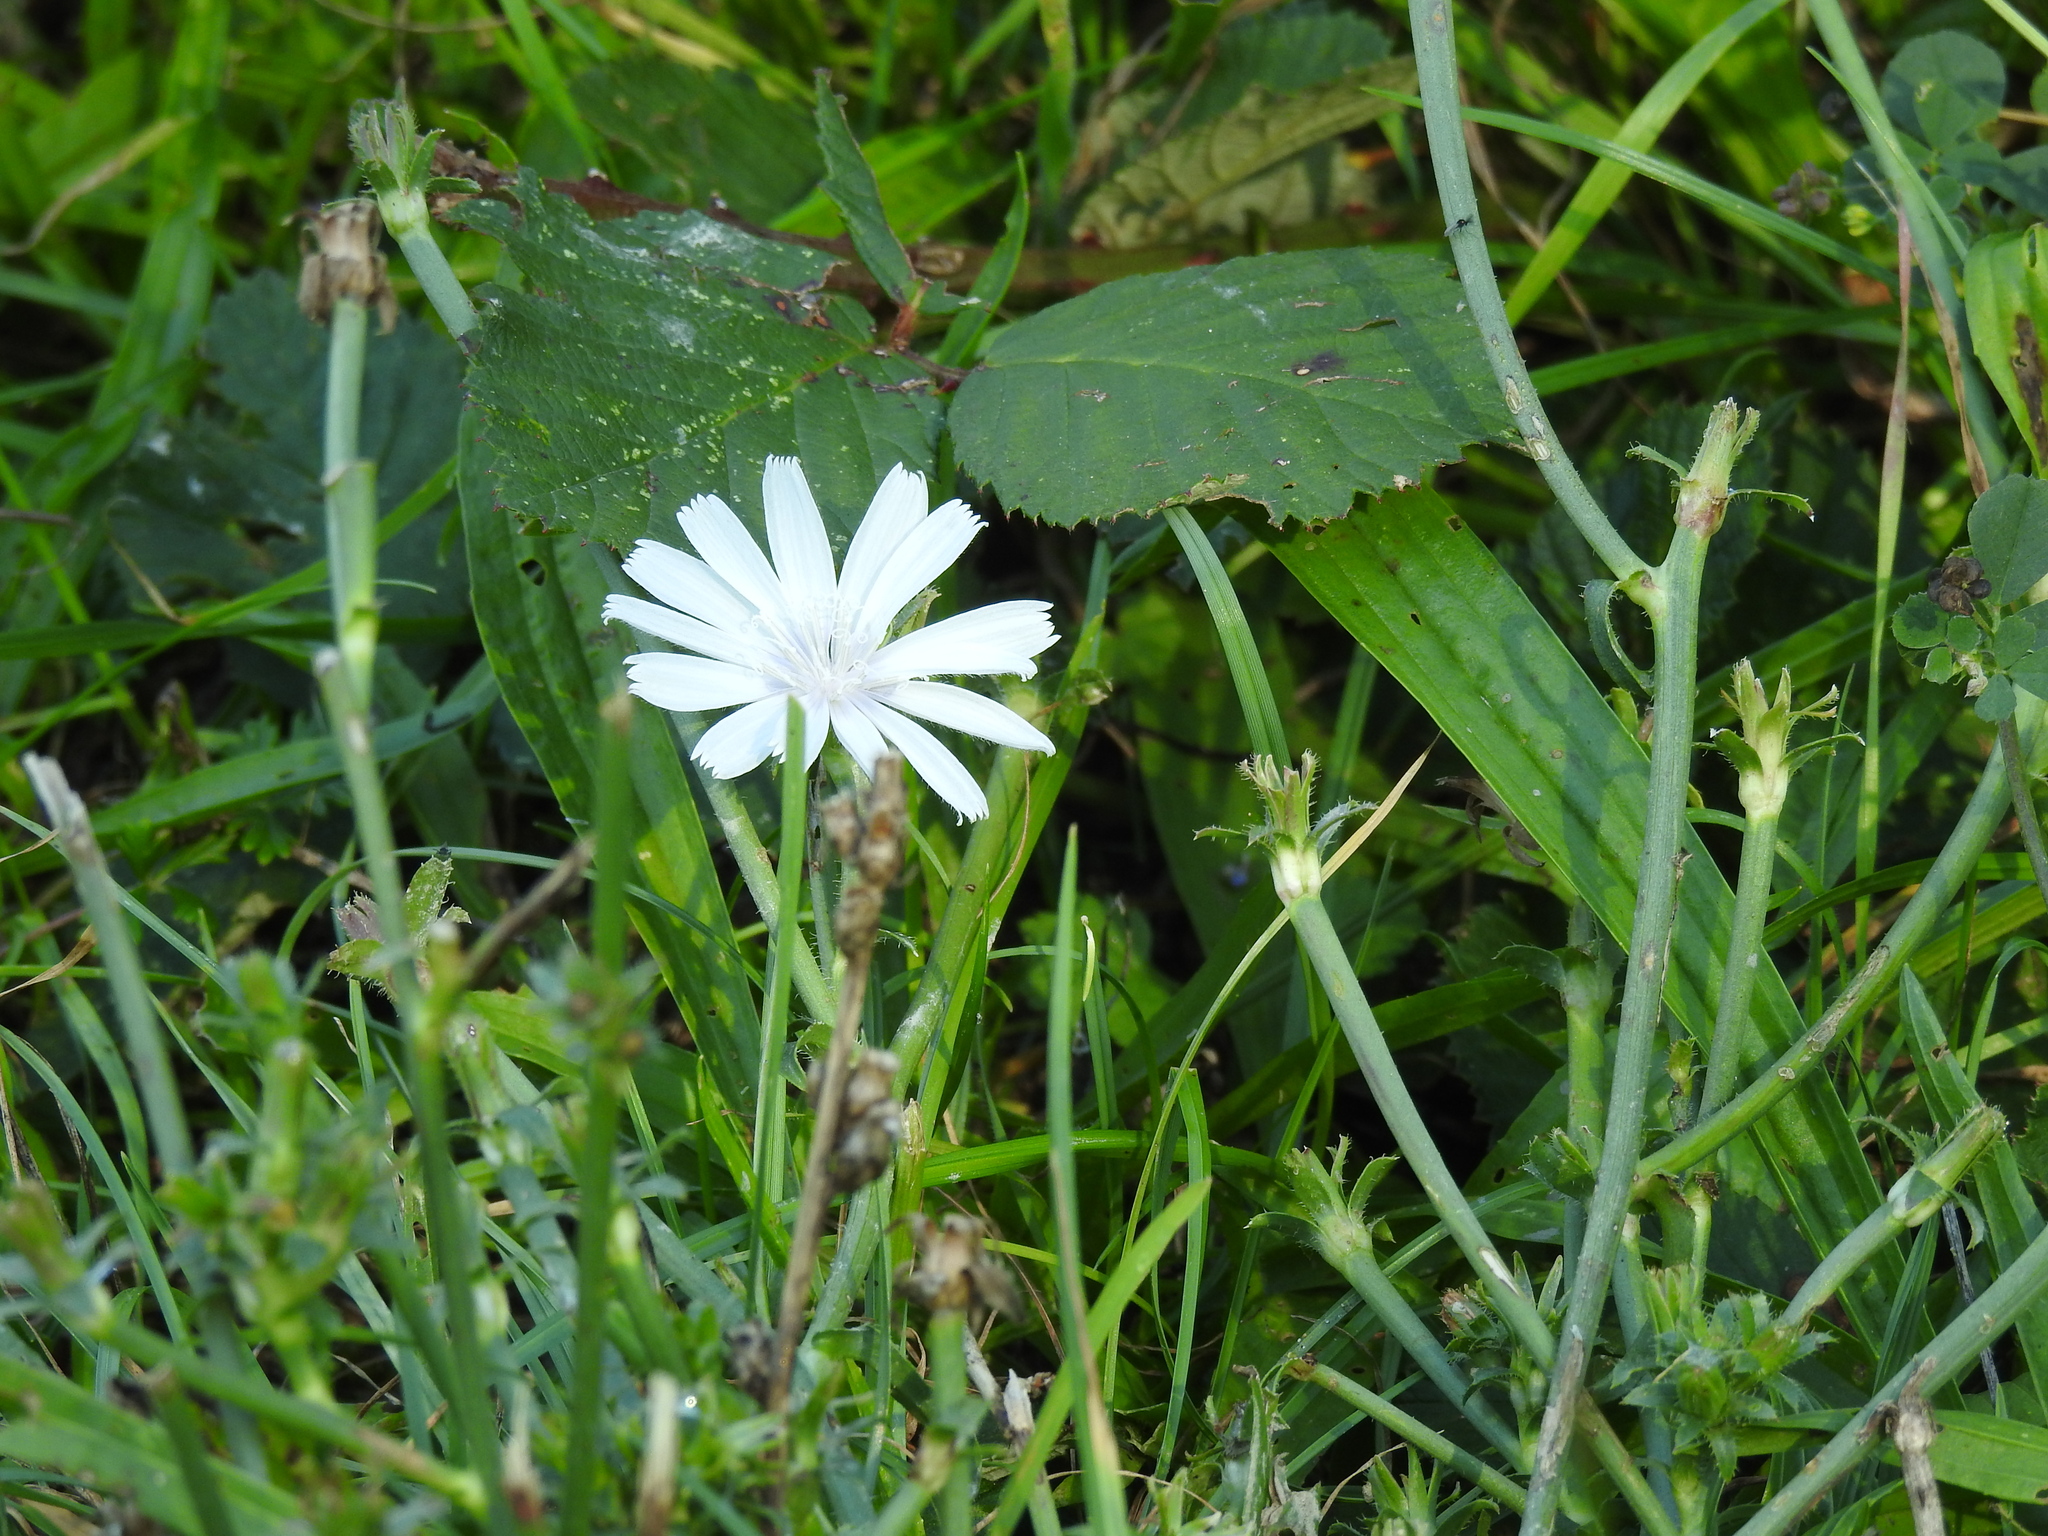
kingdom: Plantae
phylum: Tracheophyta
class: Magnoliopsida
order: Asterales
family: Asteraceae
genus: Cichorium
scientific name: Cichorium intybus
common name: Chicory
